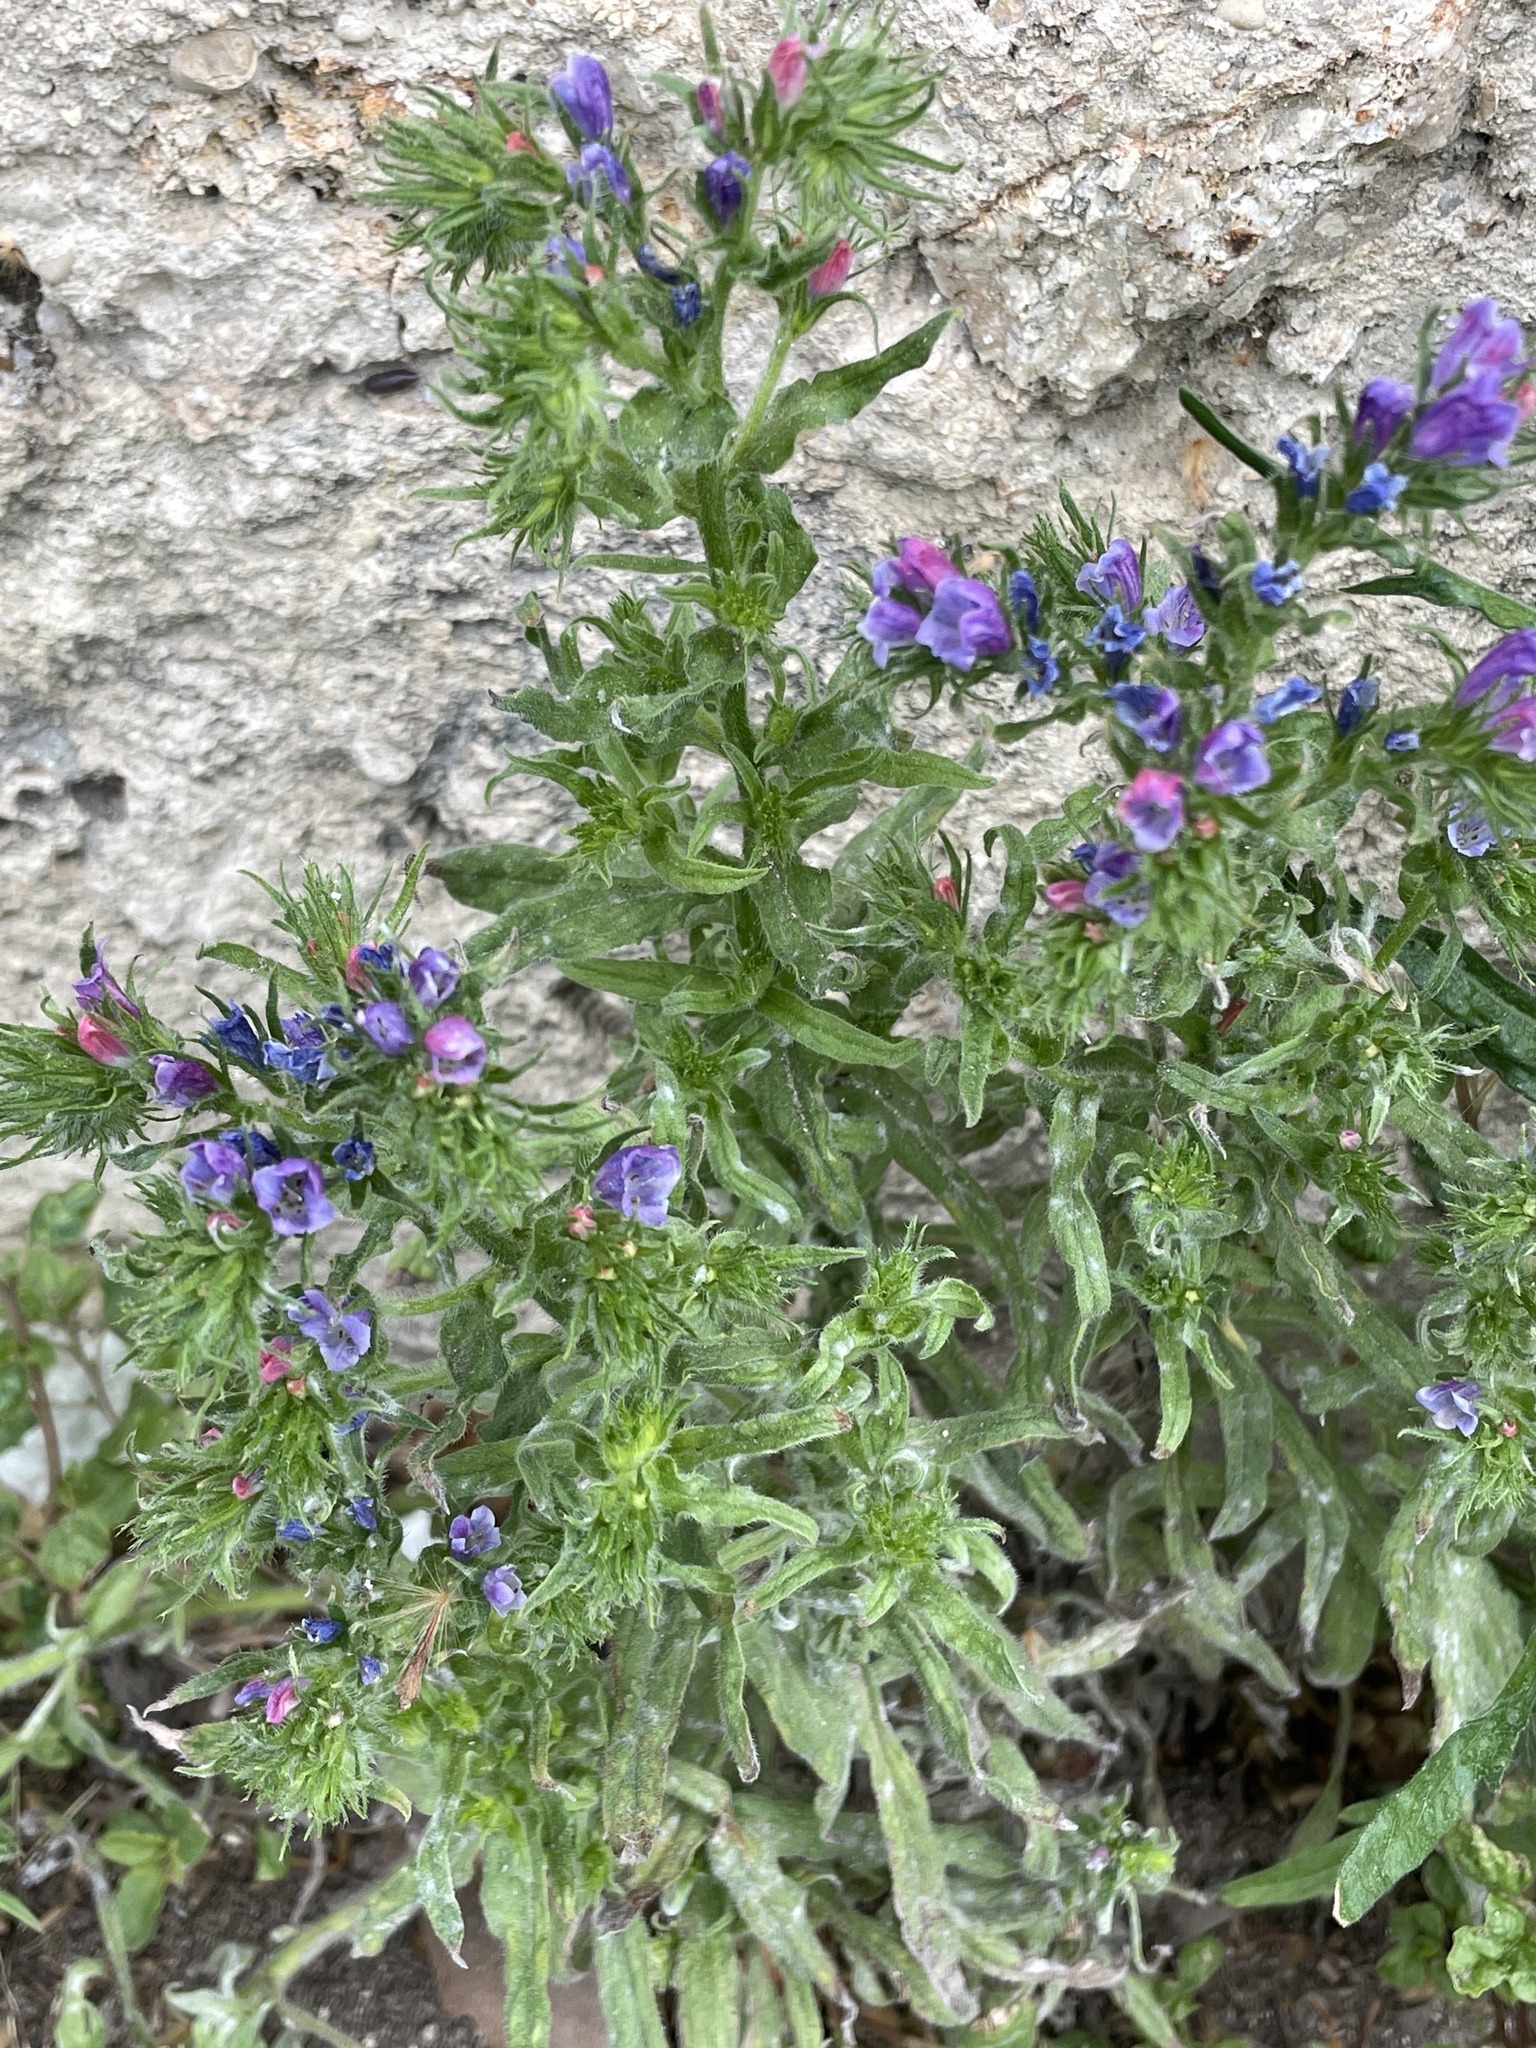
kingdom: Plantae
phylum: Tracheophyta
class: Magnoliopsida
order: Boraginales
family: Boraginaceae
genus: Echium
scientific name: Echium plantagineum
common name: Purple viper's-bugloss
